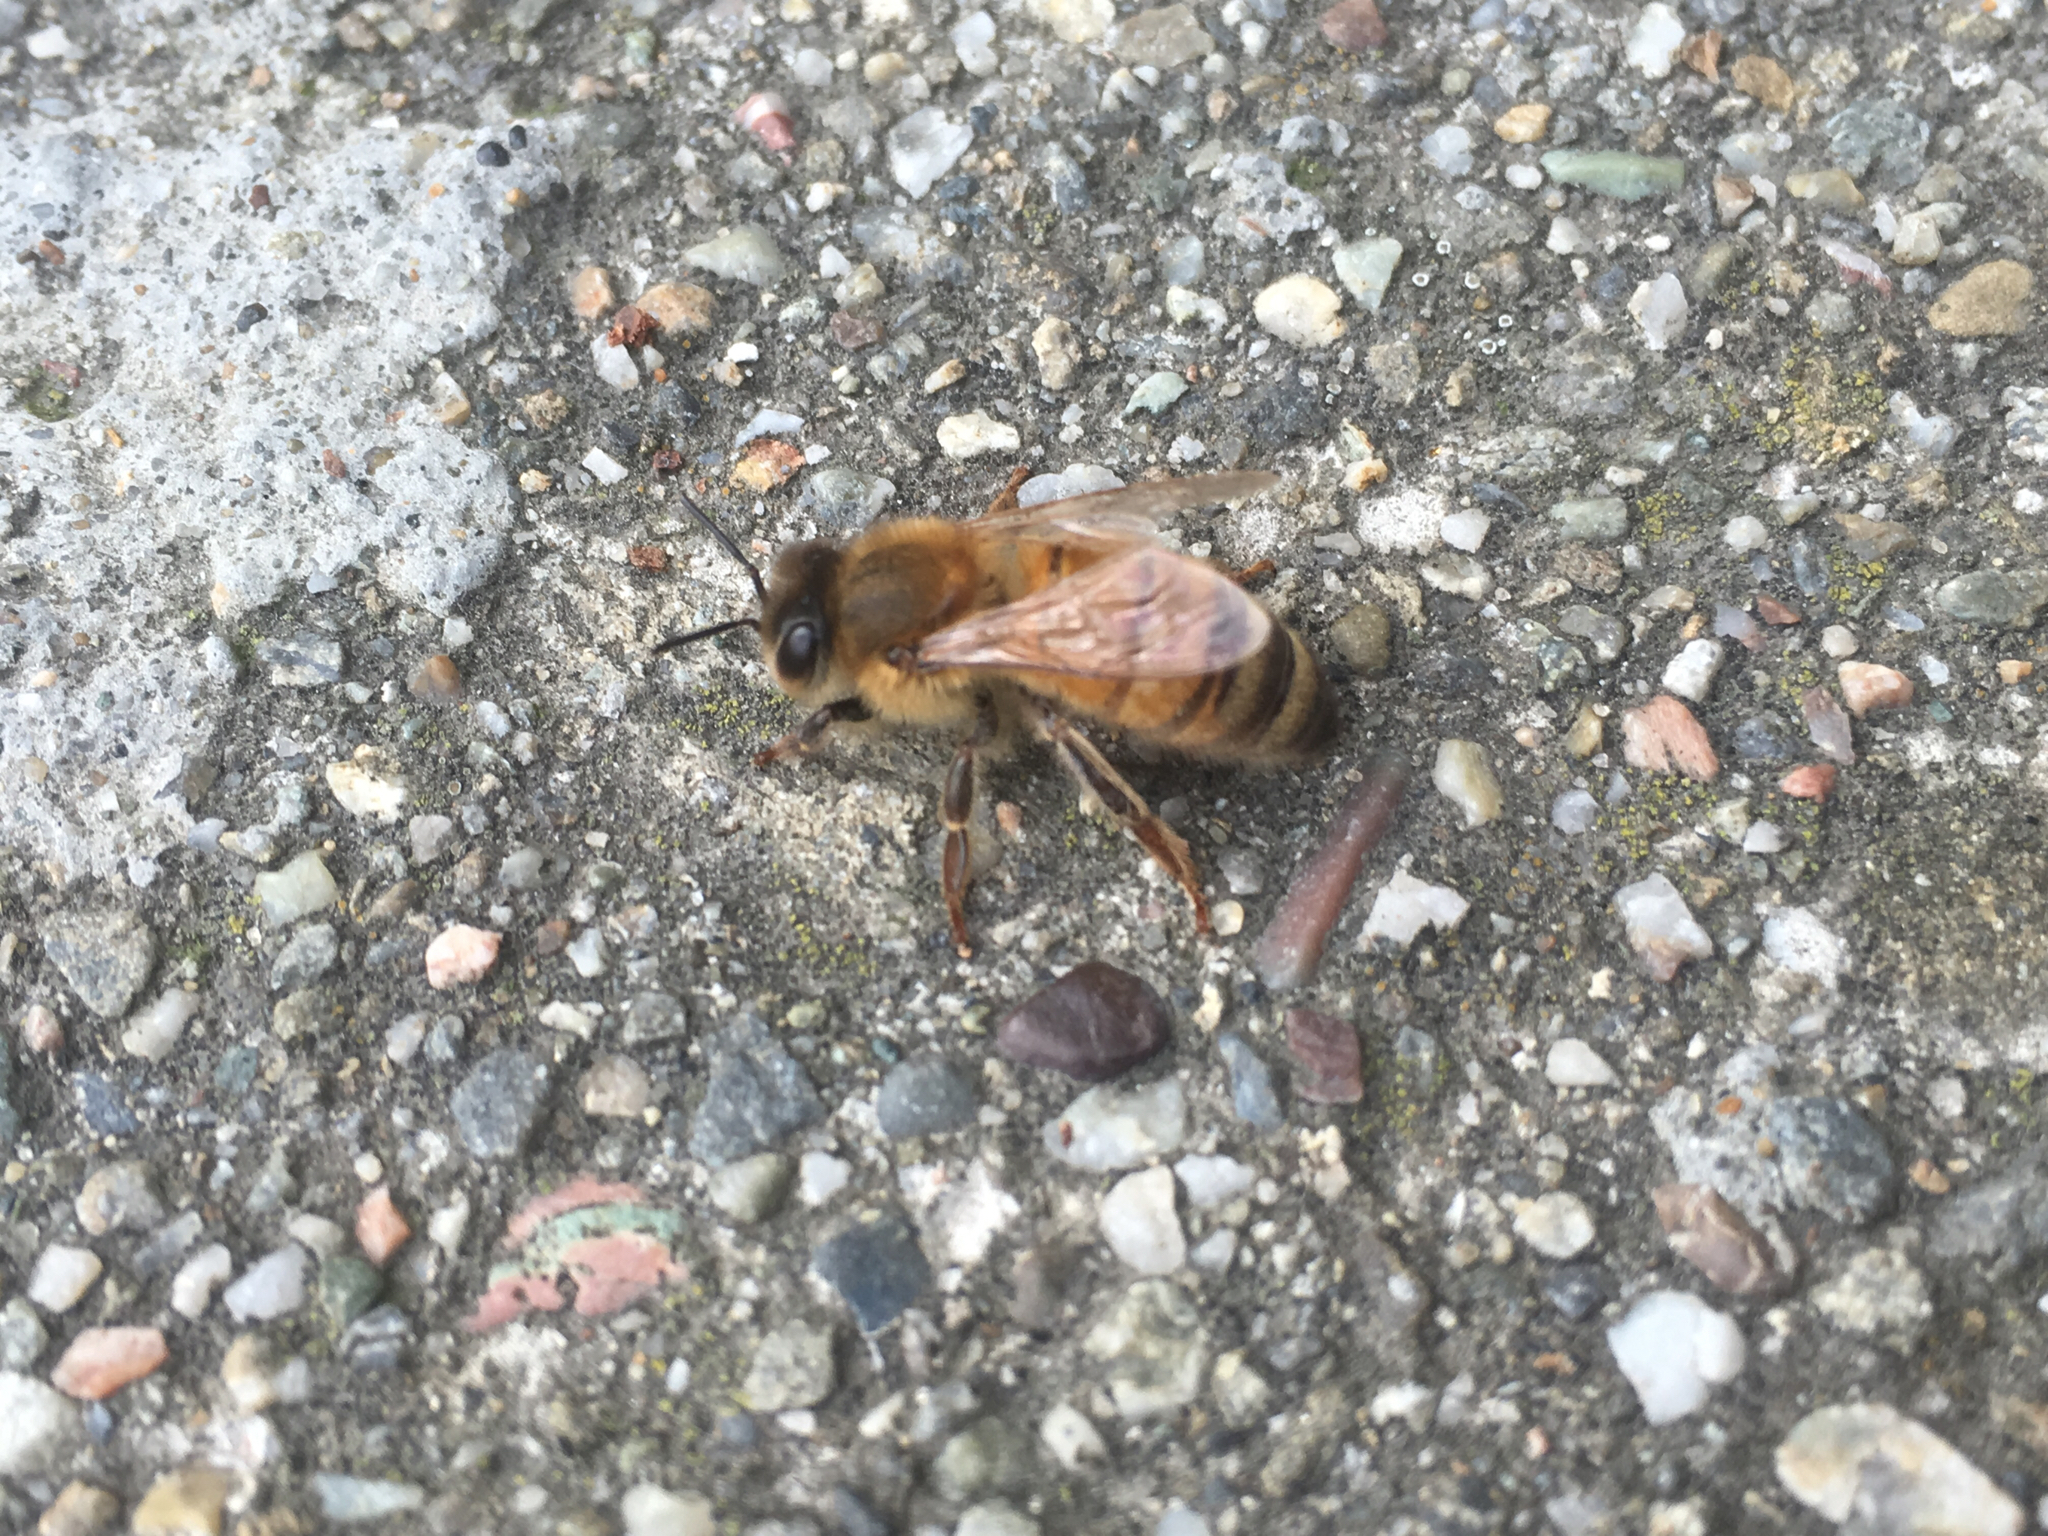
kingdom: Animalia
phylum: Arthropoda
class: Insecta
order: Hymenoptera
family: Apidae
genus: Apis
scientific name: Apis mellifera
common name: Honey bee
